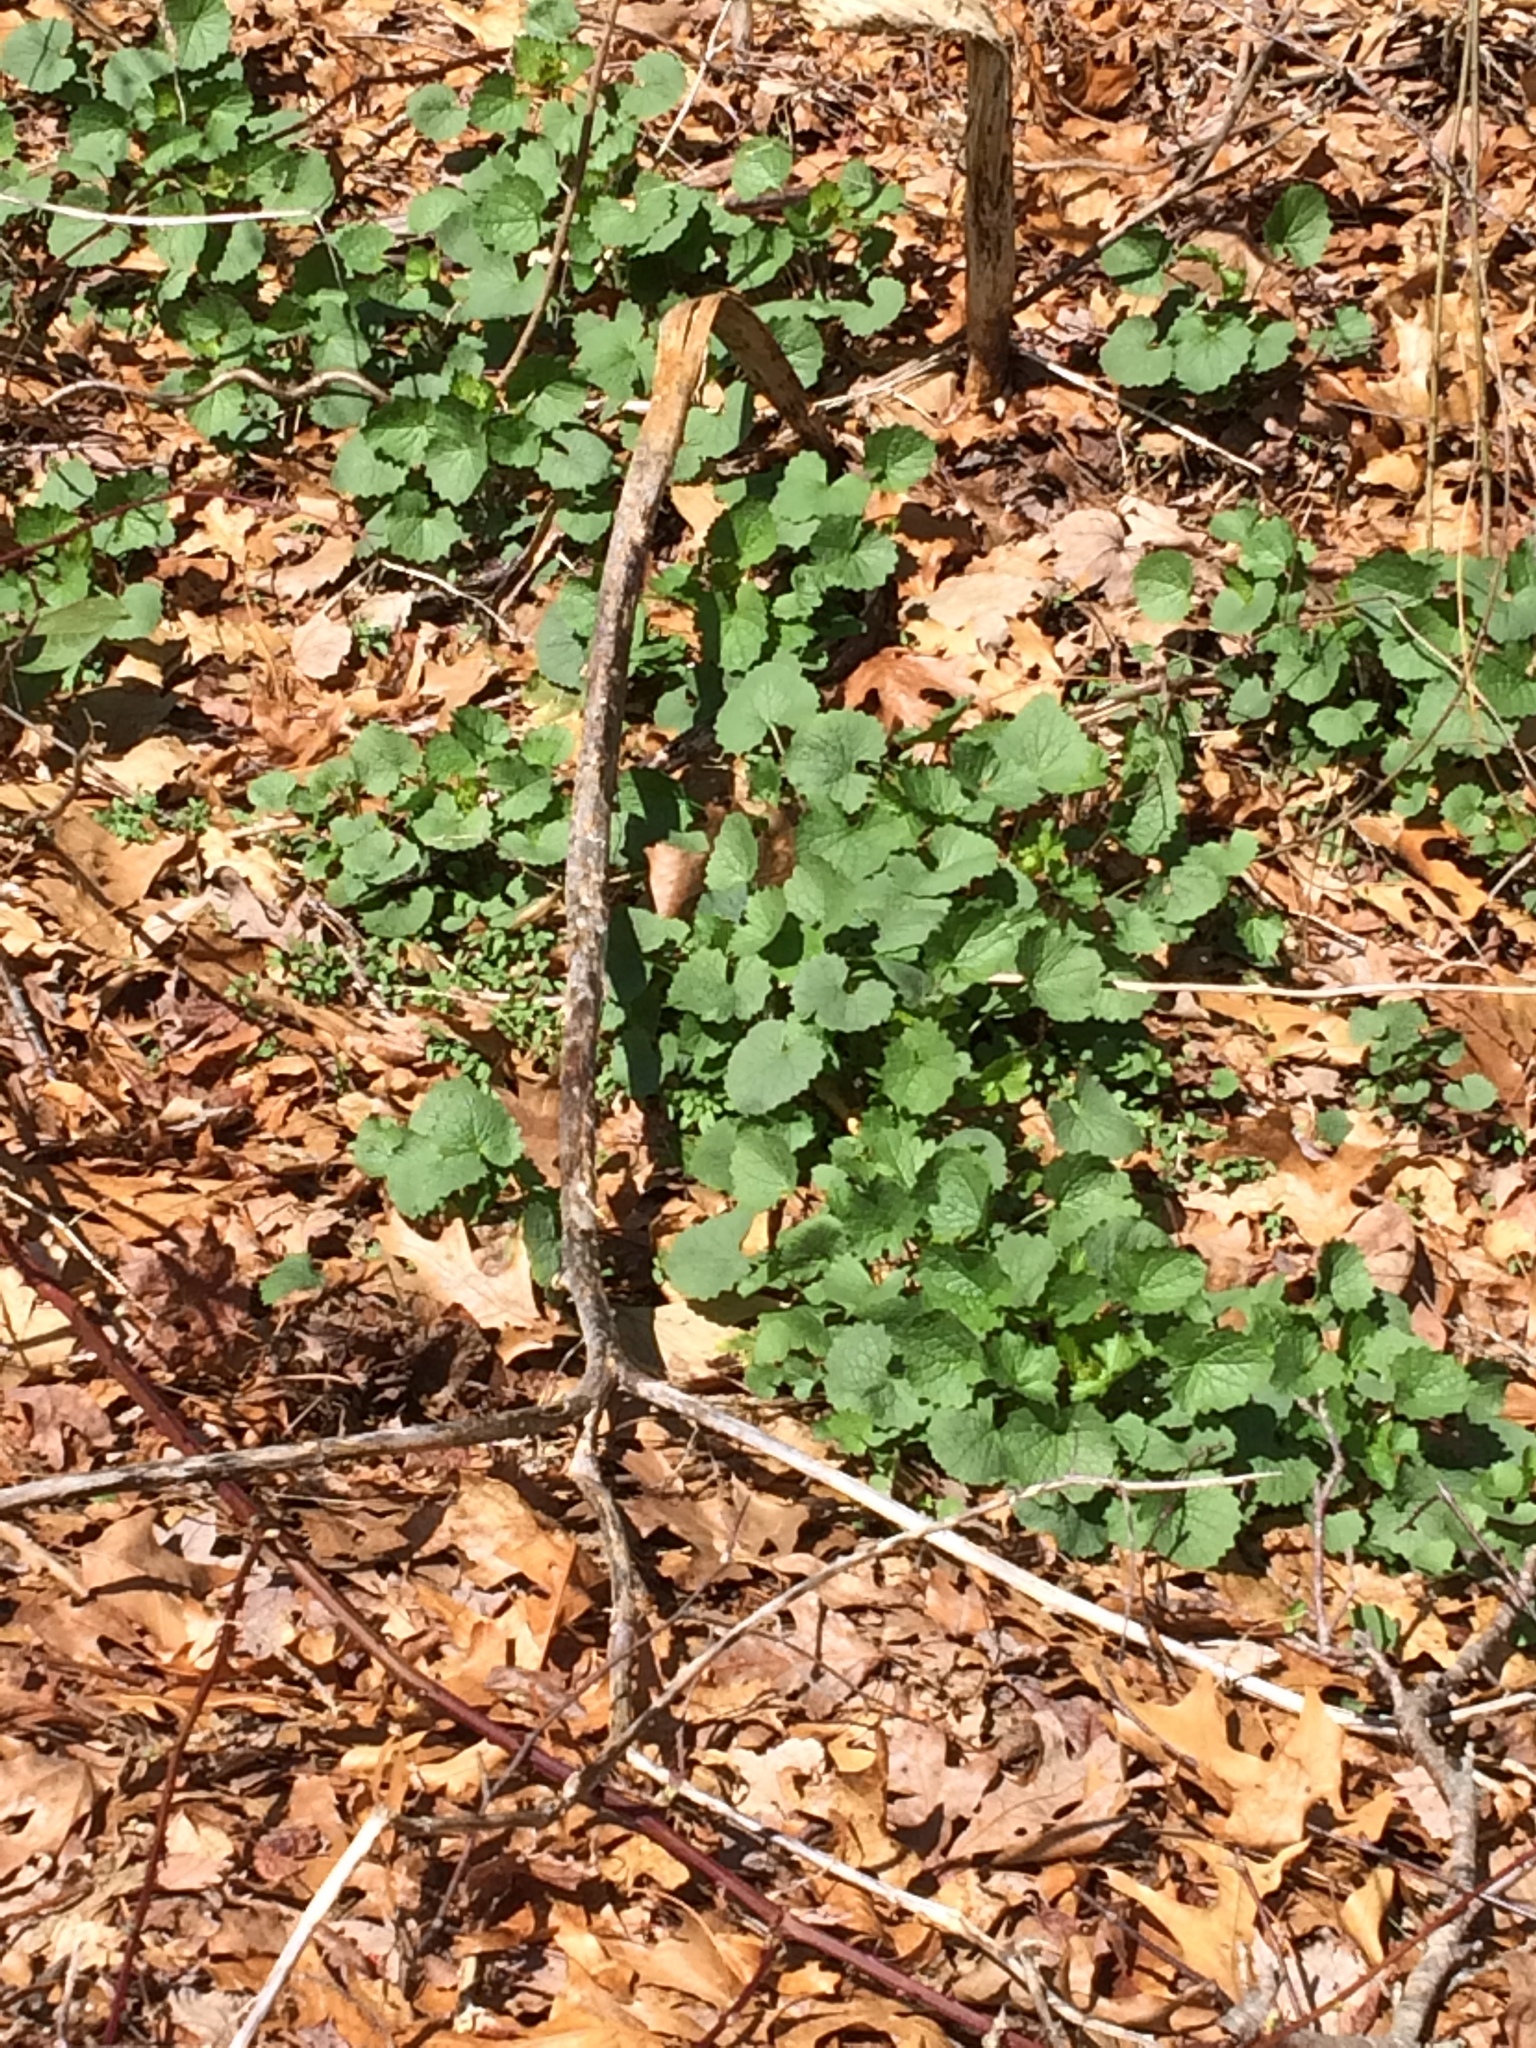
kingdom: Plantae
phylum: Tracheophyta
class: Magnoliopsida
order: Brassicales
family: Brassicaceae
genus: Alliaria
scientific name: Alliaria petiolata
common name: Garlic mustard
